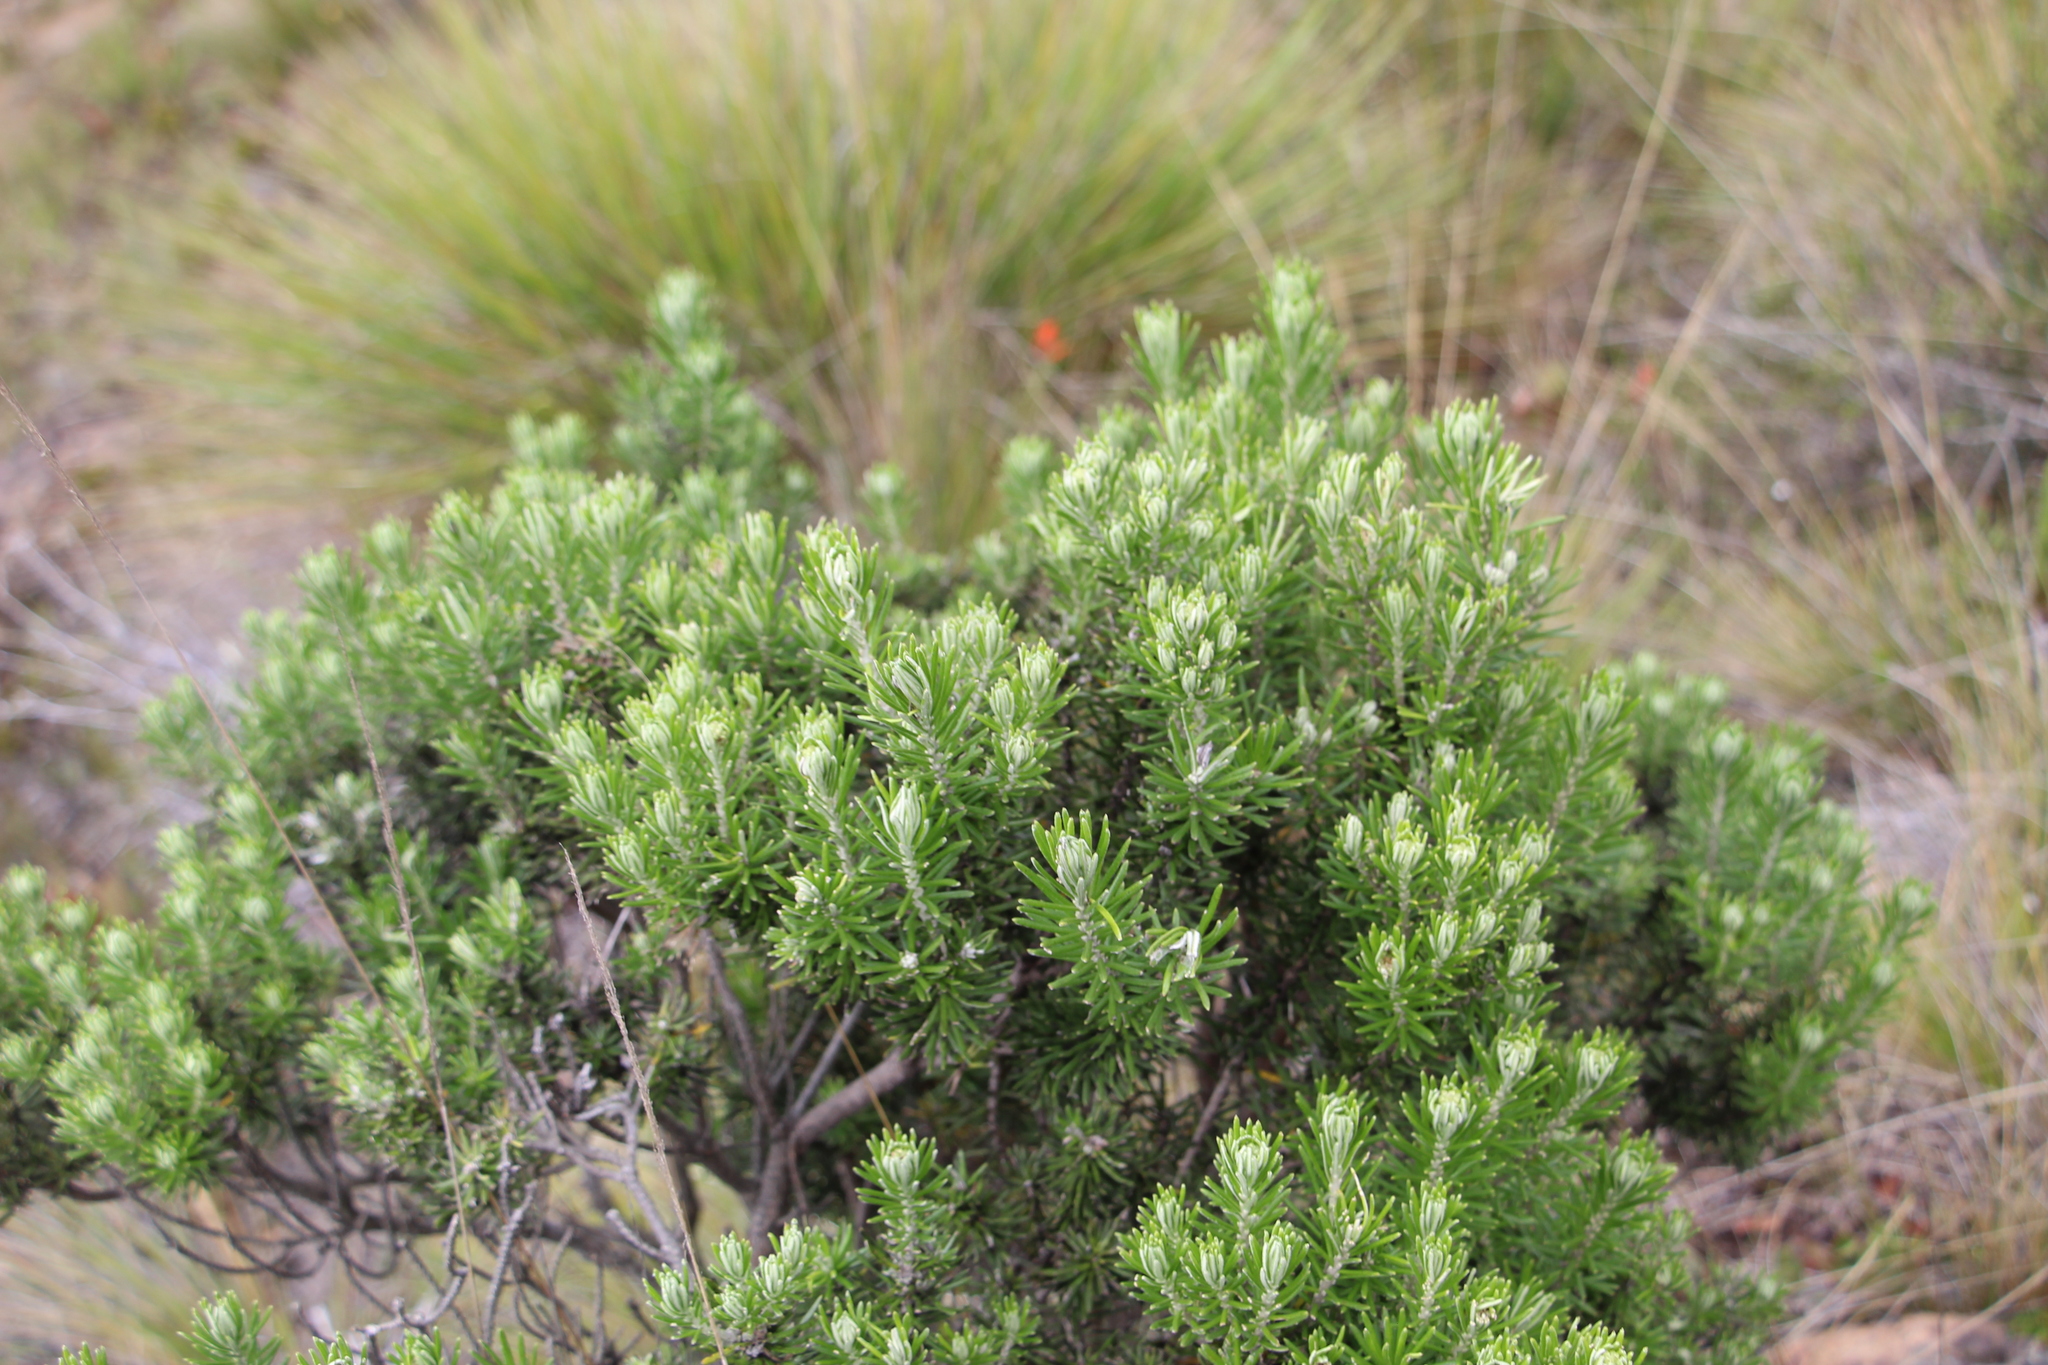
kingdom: Plantae
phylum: Tracheophyta
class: Magnoliopsida
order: Asterales
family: Asteraceae
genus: Linochilus
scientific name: Linochilus rosmarinifolius
